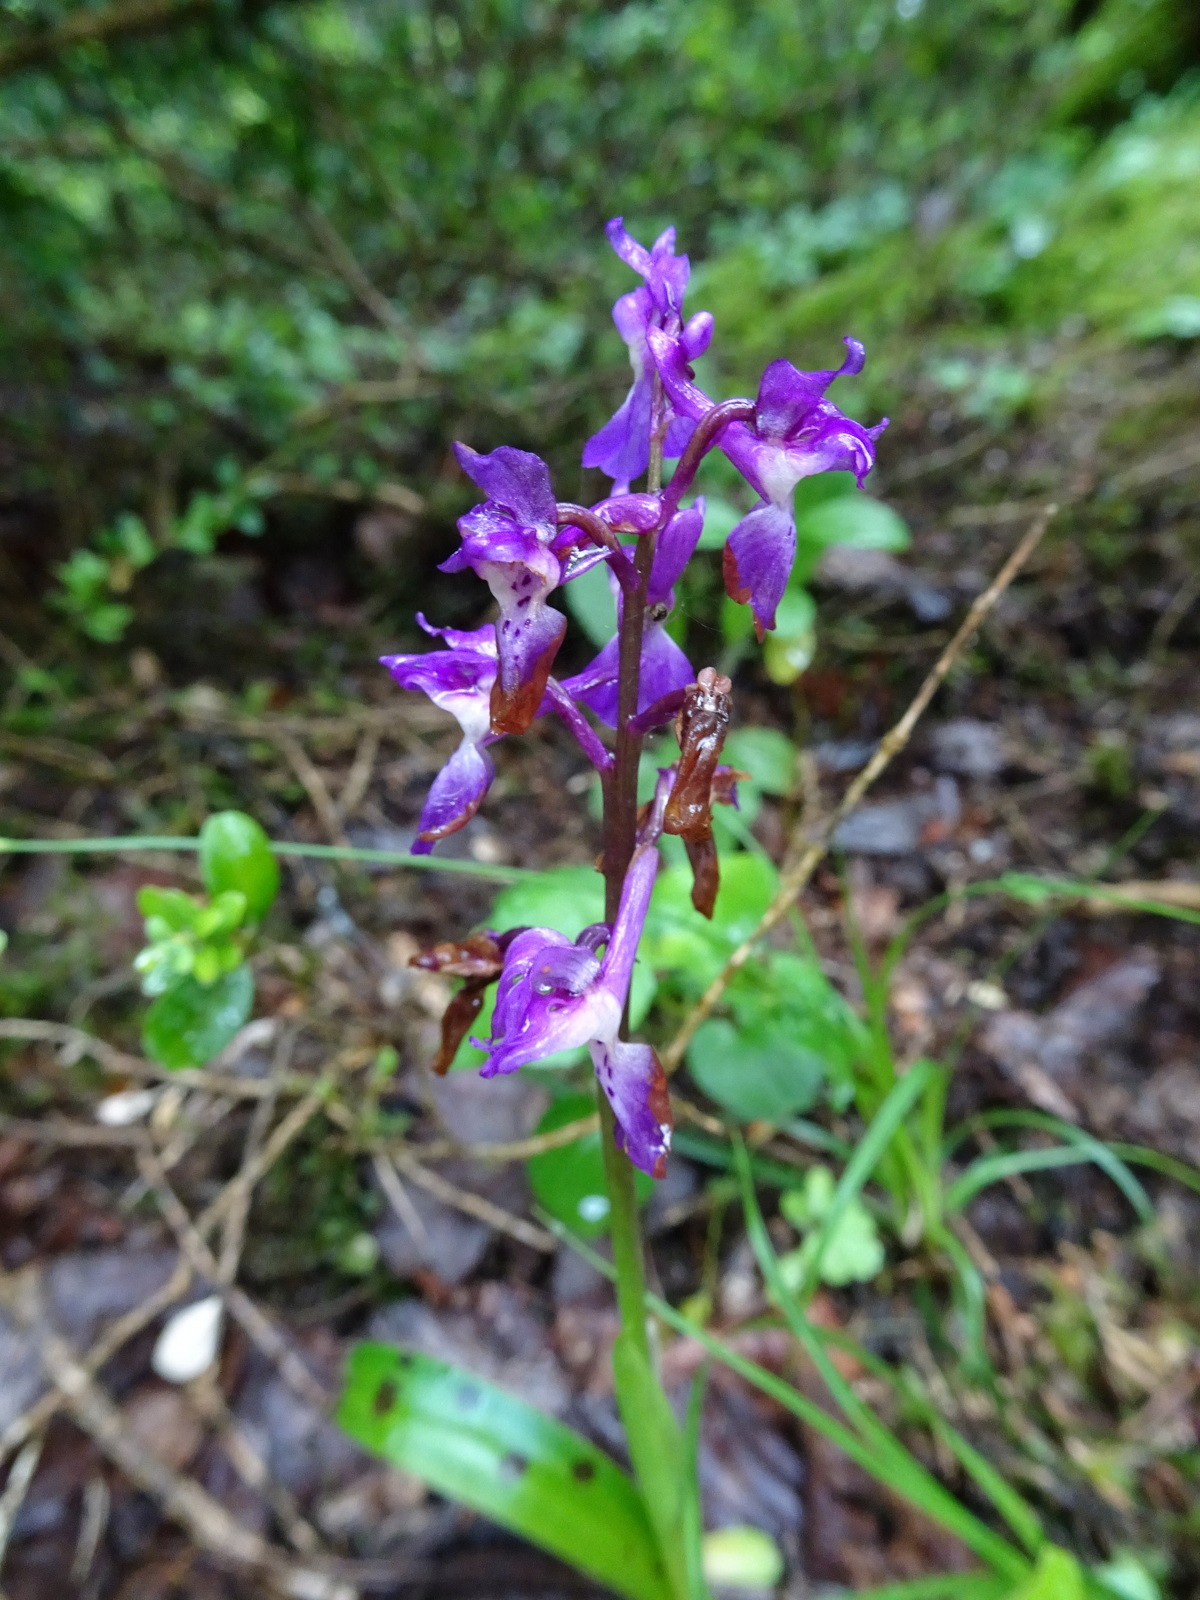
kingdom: Plantae
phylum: Tracheophyta
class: Liliopsida
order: Asparagales
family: Orchidaceae
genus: Orchis
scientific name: Orchis mascula
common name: Early-purple orchid
